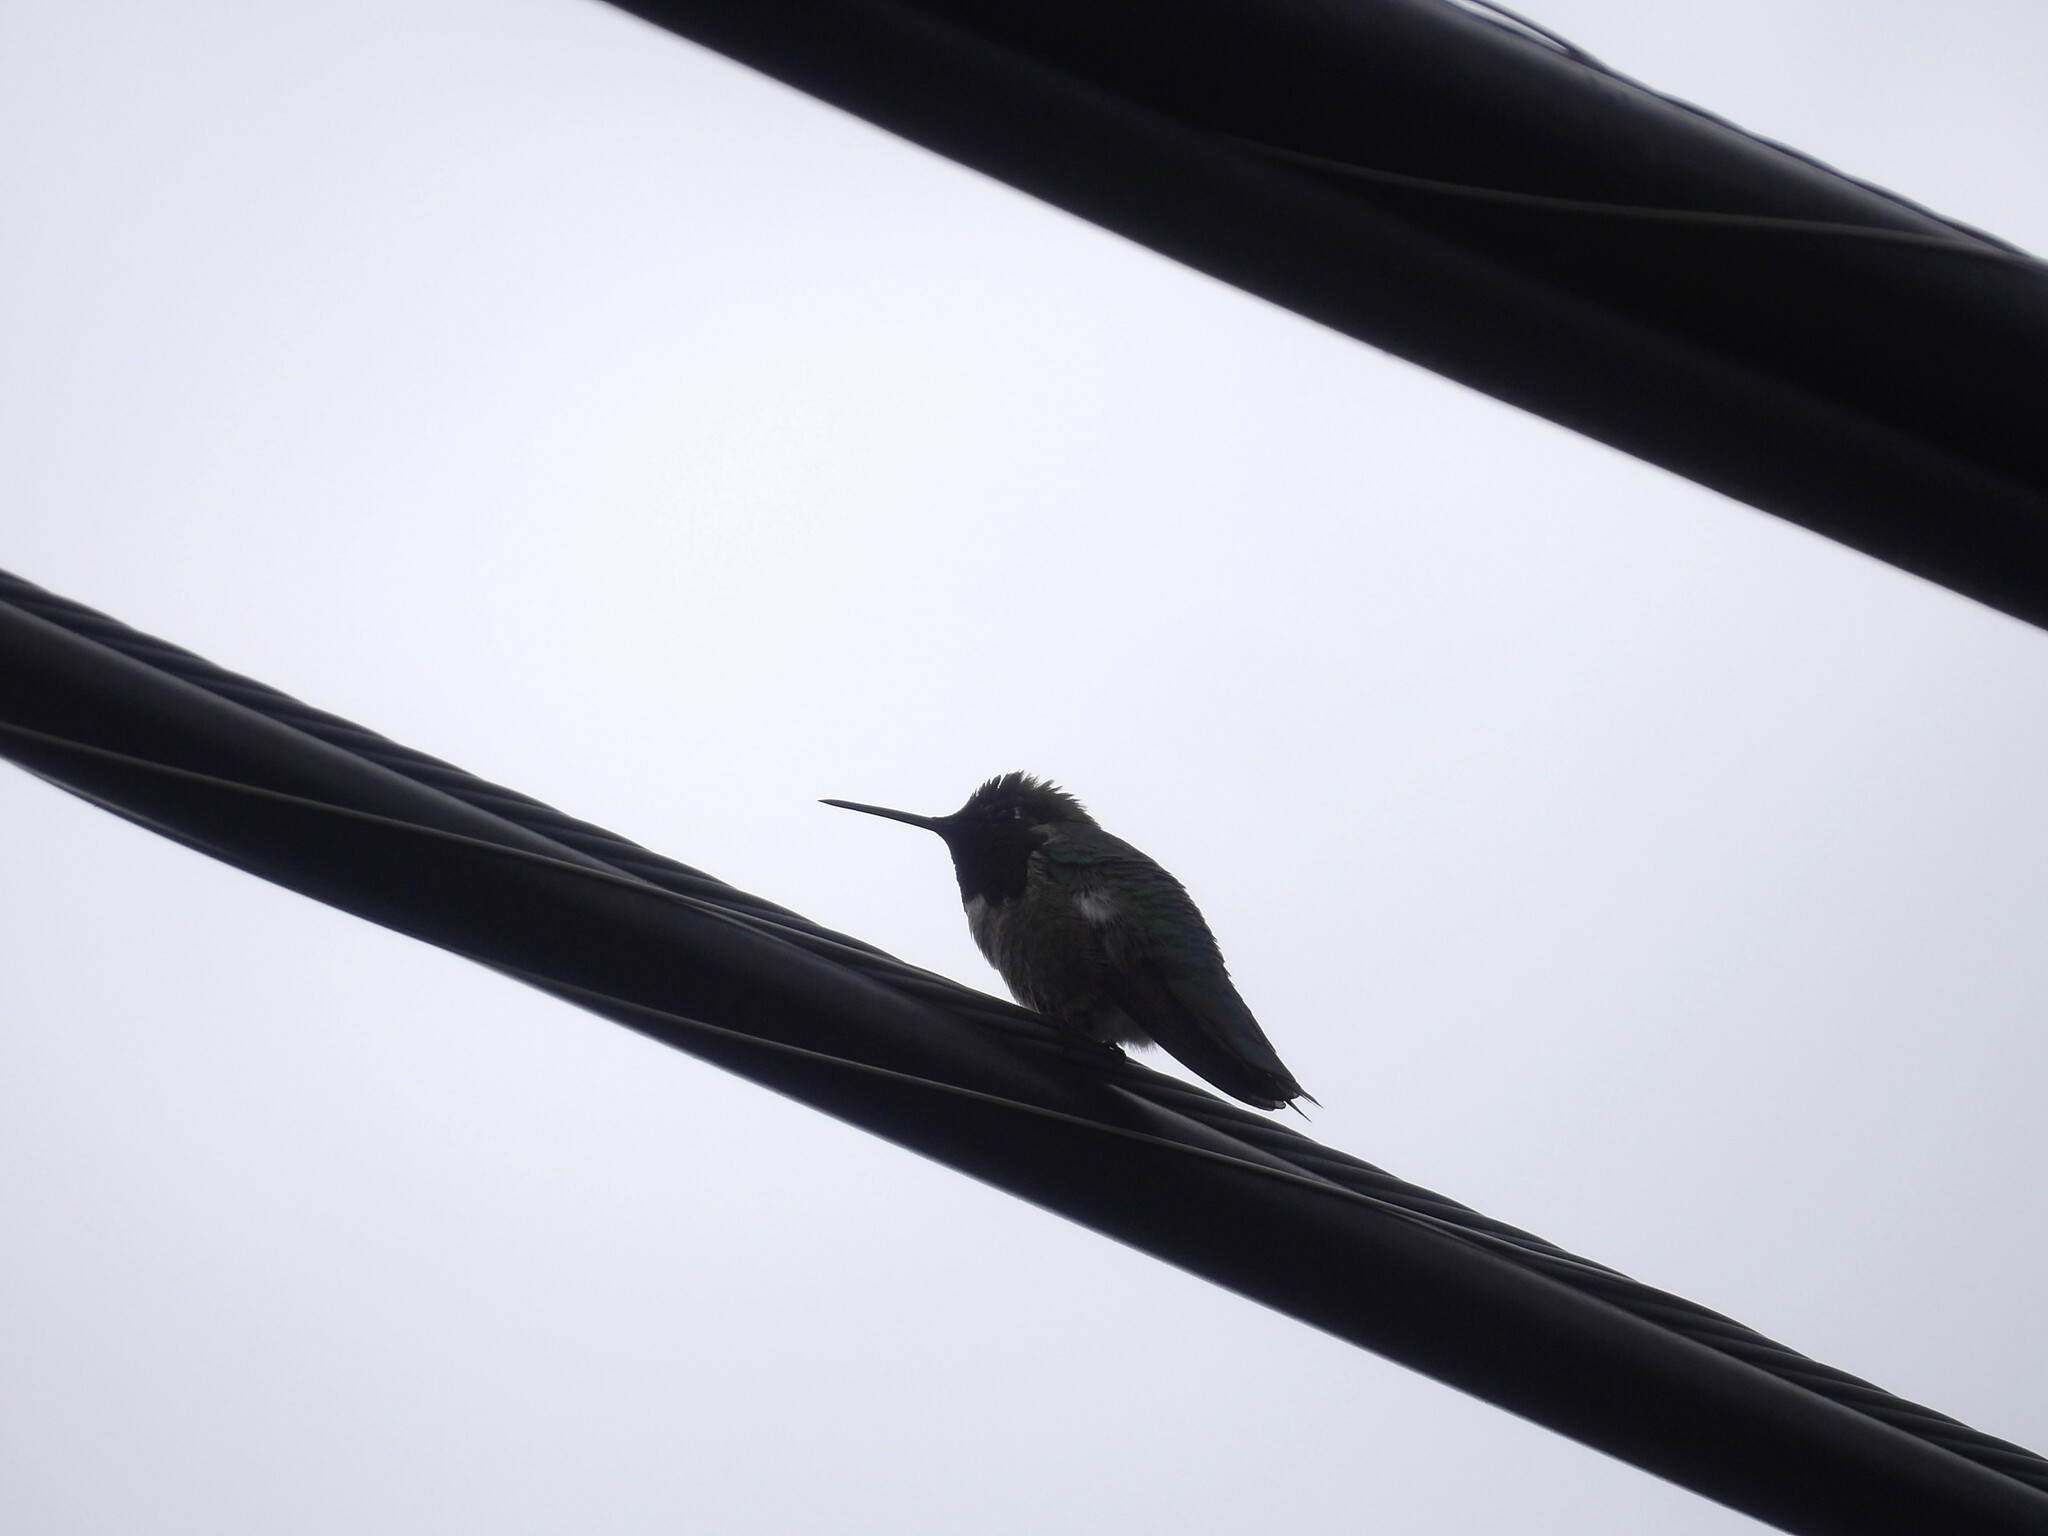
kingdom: Animalia
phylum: Chordata
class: Aves
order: Apodiformes
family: Trochilidae
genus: Calypte
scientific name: Calypte anna
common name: Anna's hummingbird
